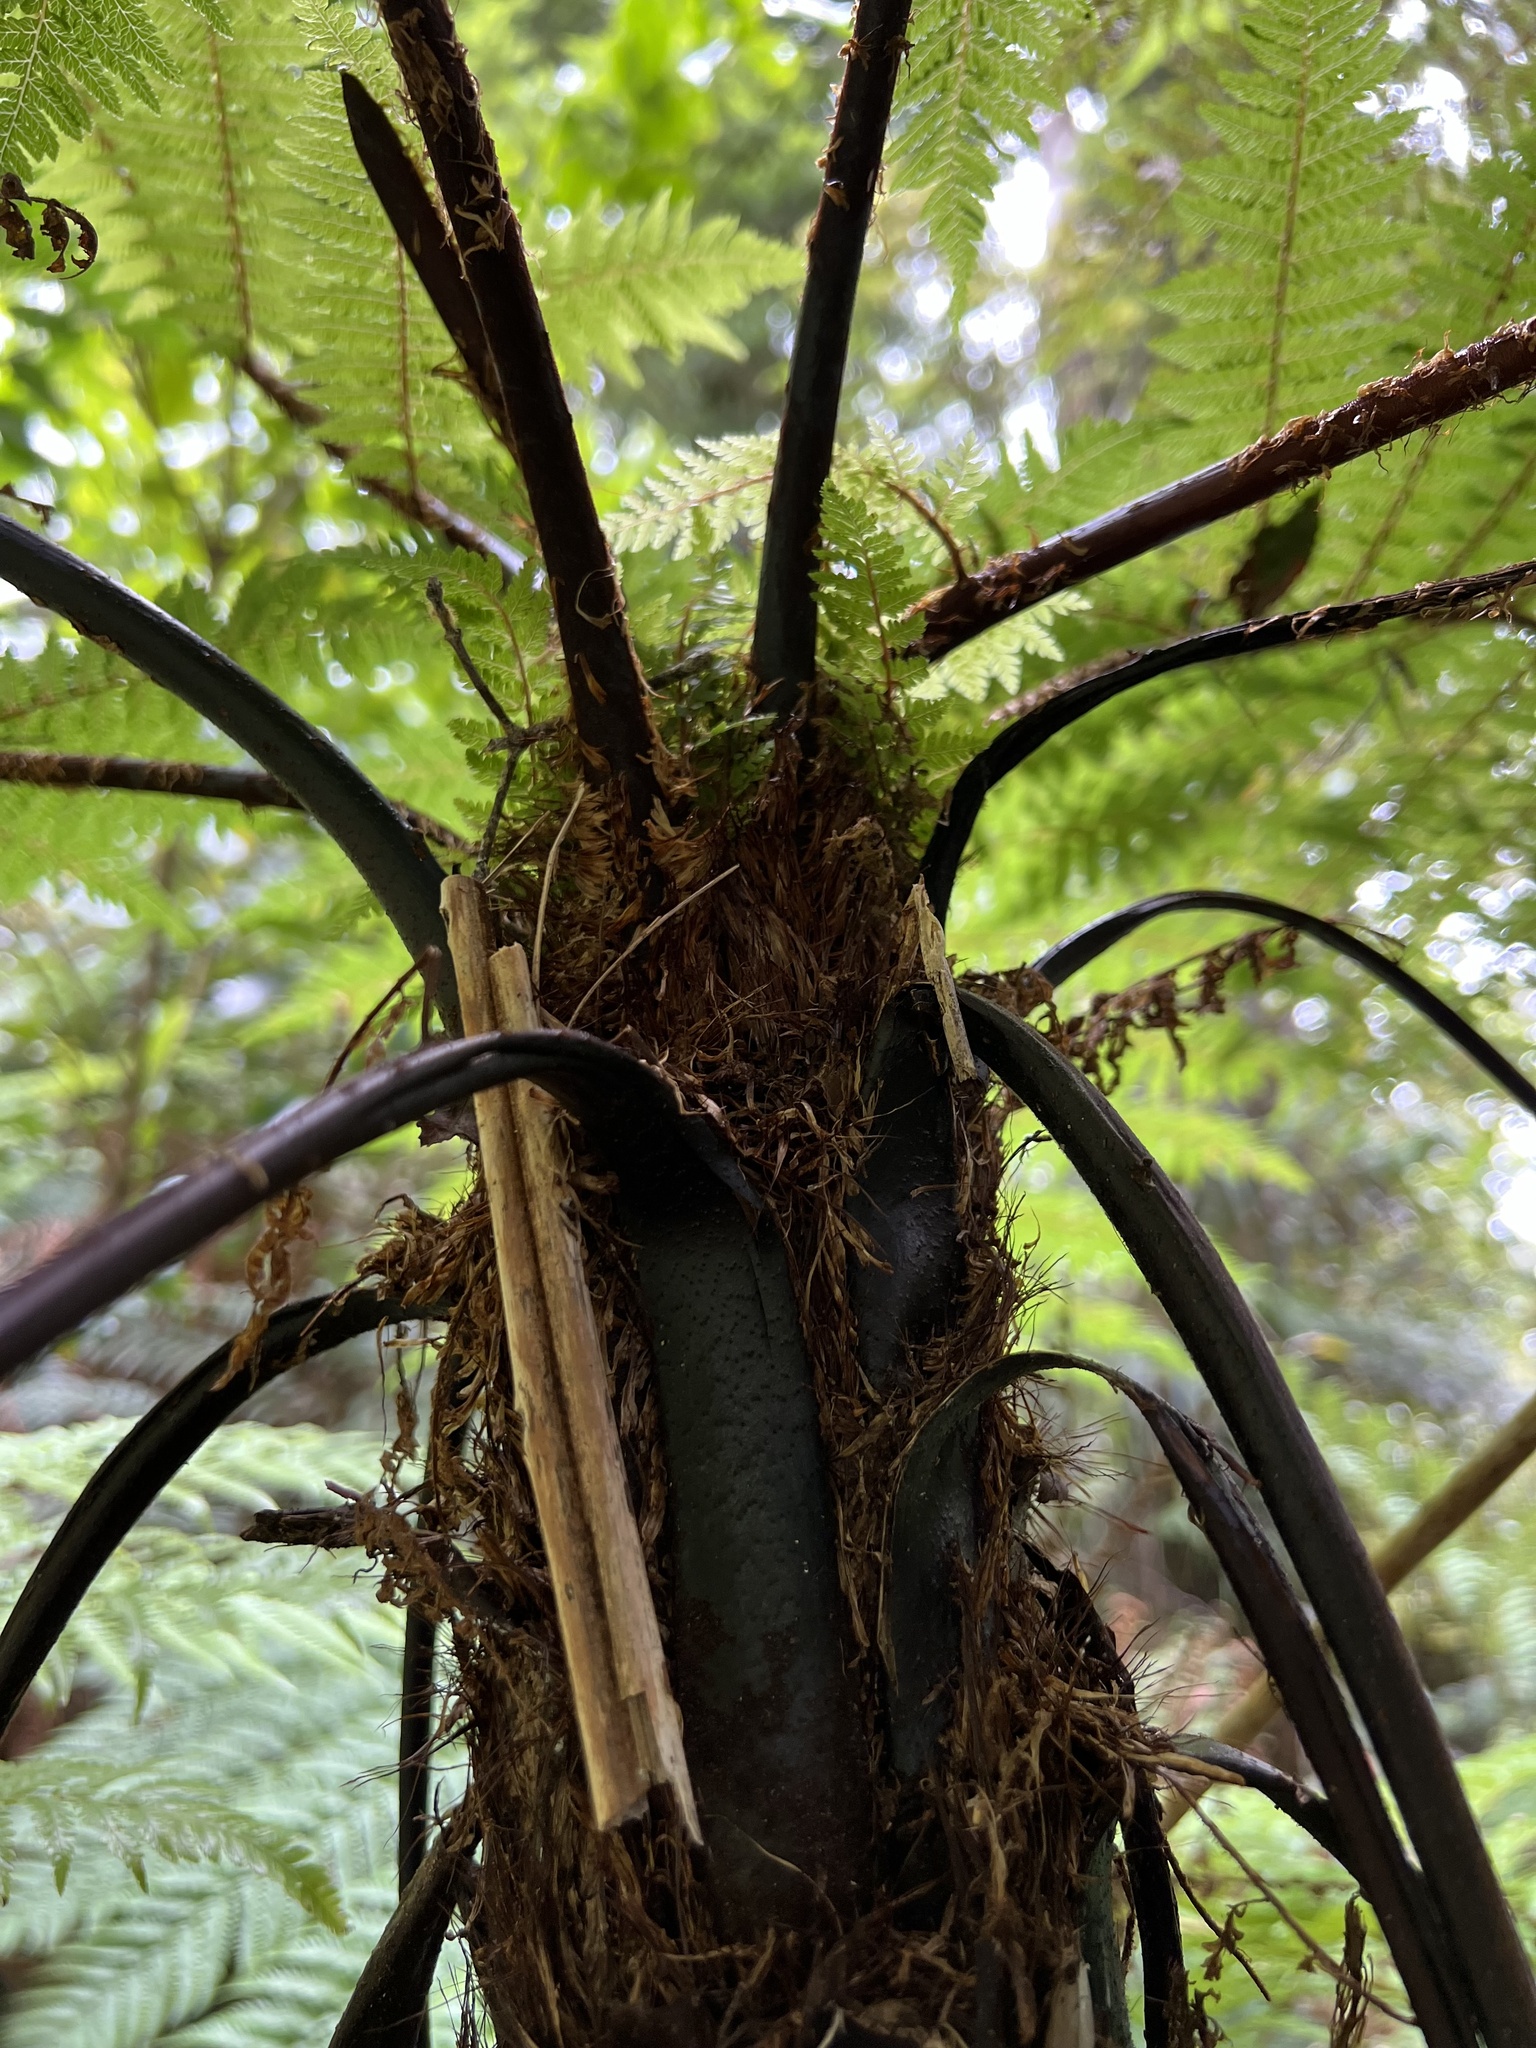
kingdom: Plantae
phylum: Tracheophyta
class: Polypodiopsida
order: Cyatheales
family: Cyatheaceae
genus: Cyathea
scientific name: Cyathea cunninghamii
